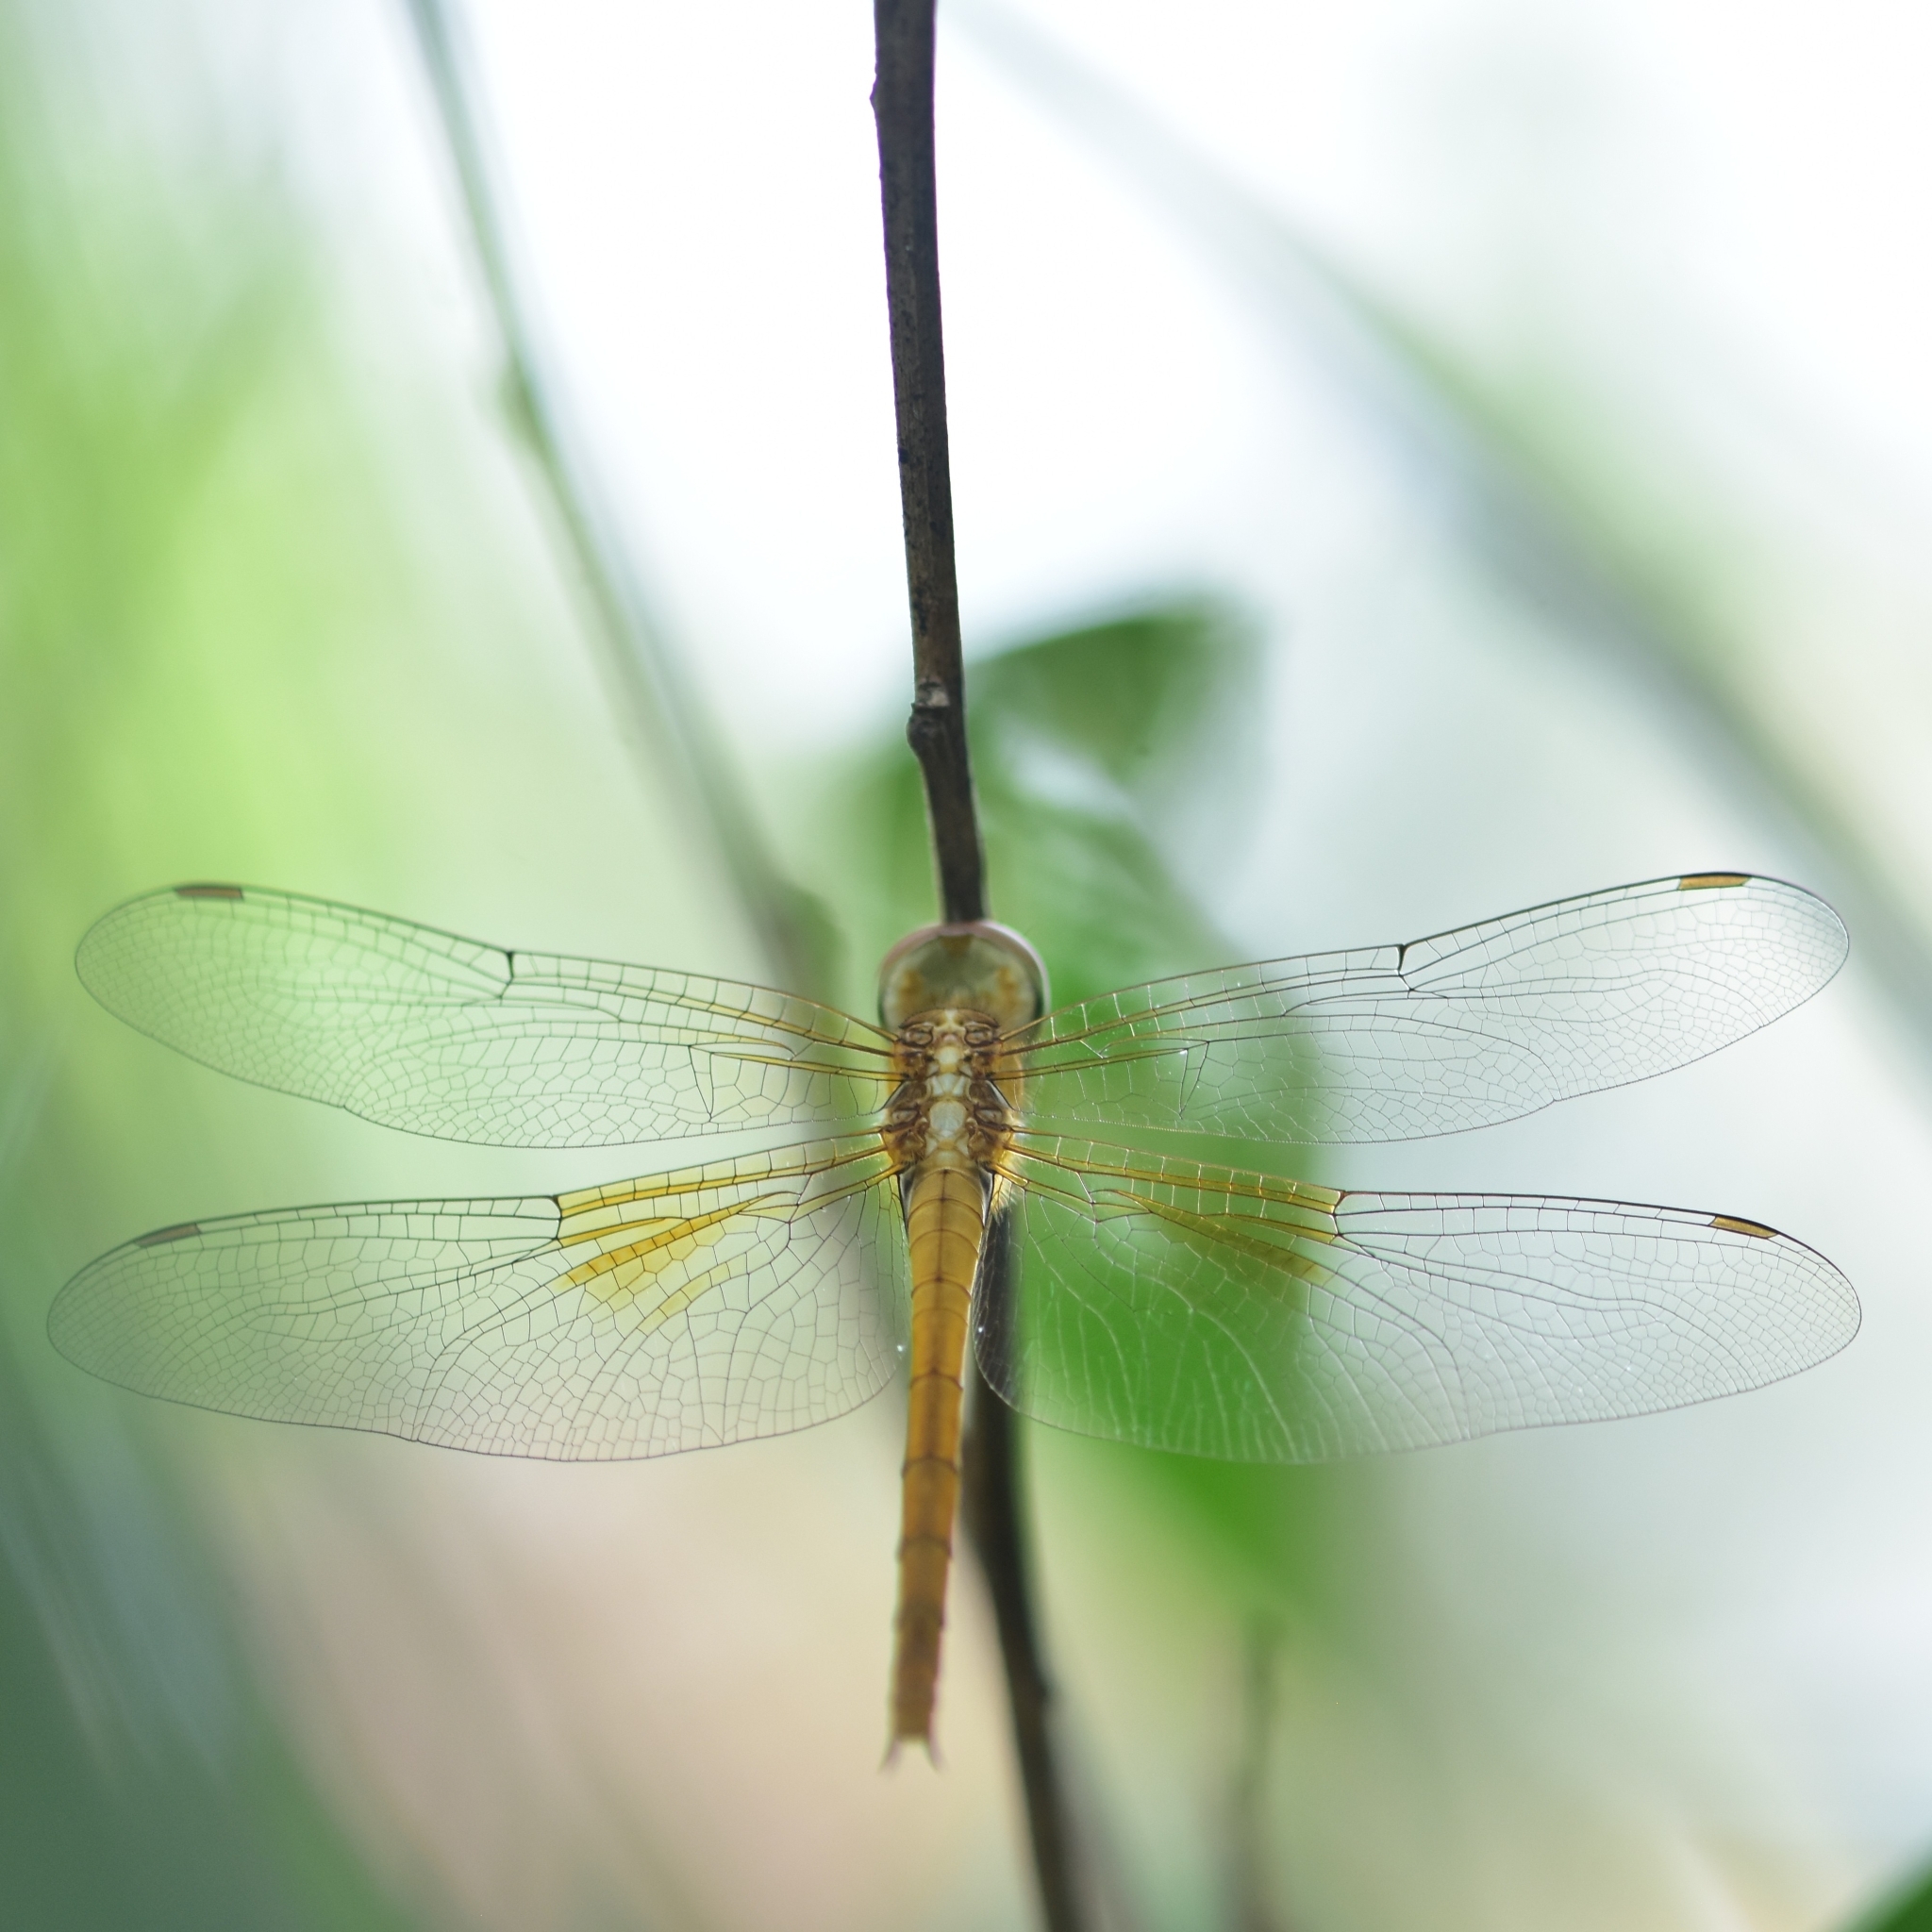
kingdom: Animalia
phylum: Arthropoda
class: Insecta
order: Odonata
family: Libellulidae
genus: Tholymis
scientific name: Tholymis tillarga
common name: Coral-tailed cloud wing
